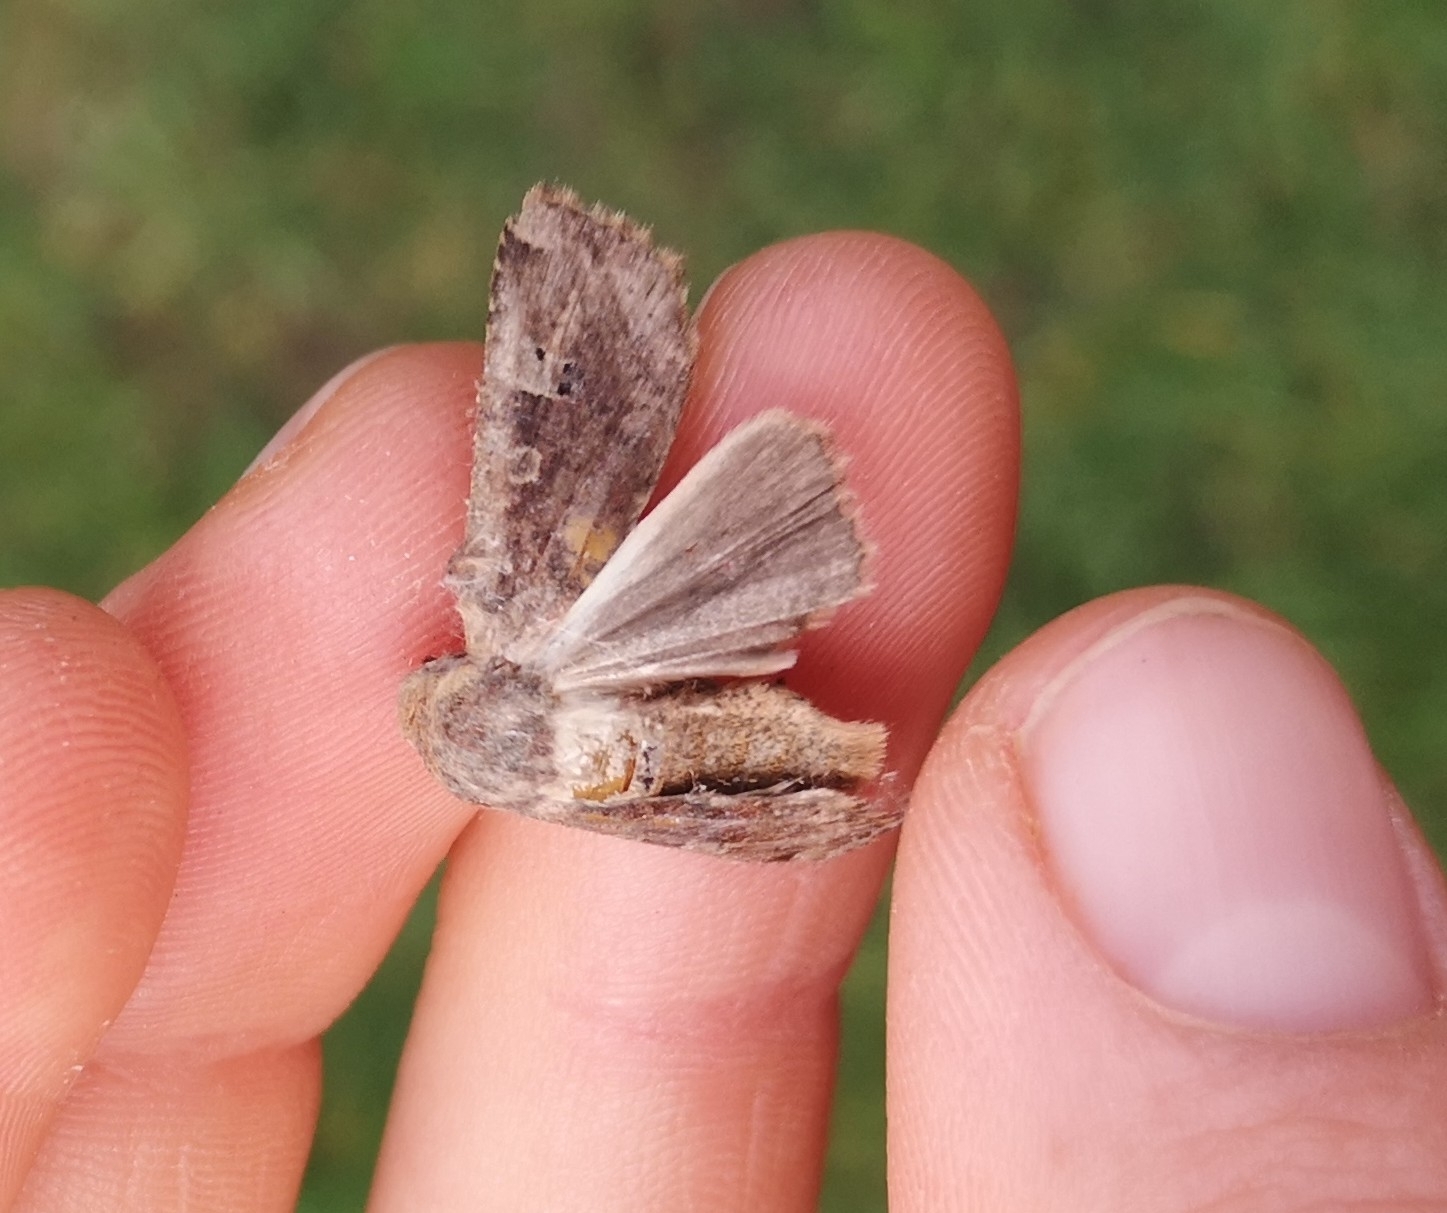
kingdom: Animalia
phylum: Arthropoda
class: Insecta
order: Lepidoptera
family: Noctuidae
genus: Conistra
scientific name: Conistra erythrocephala
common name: Red-headed chestnut
